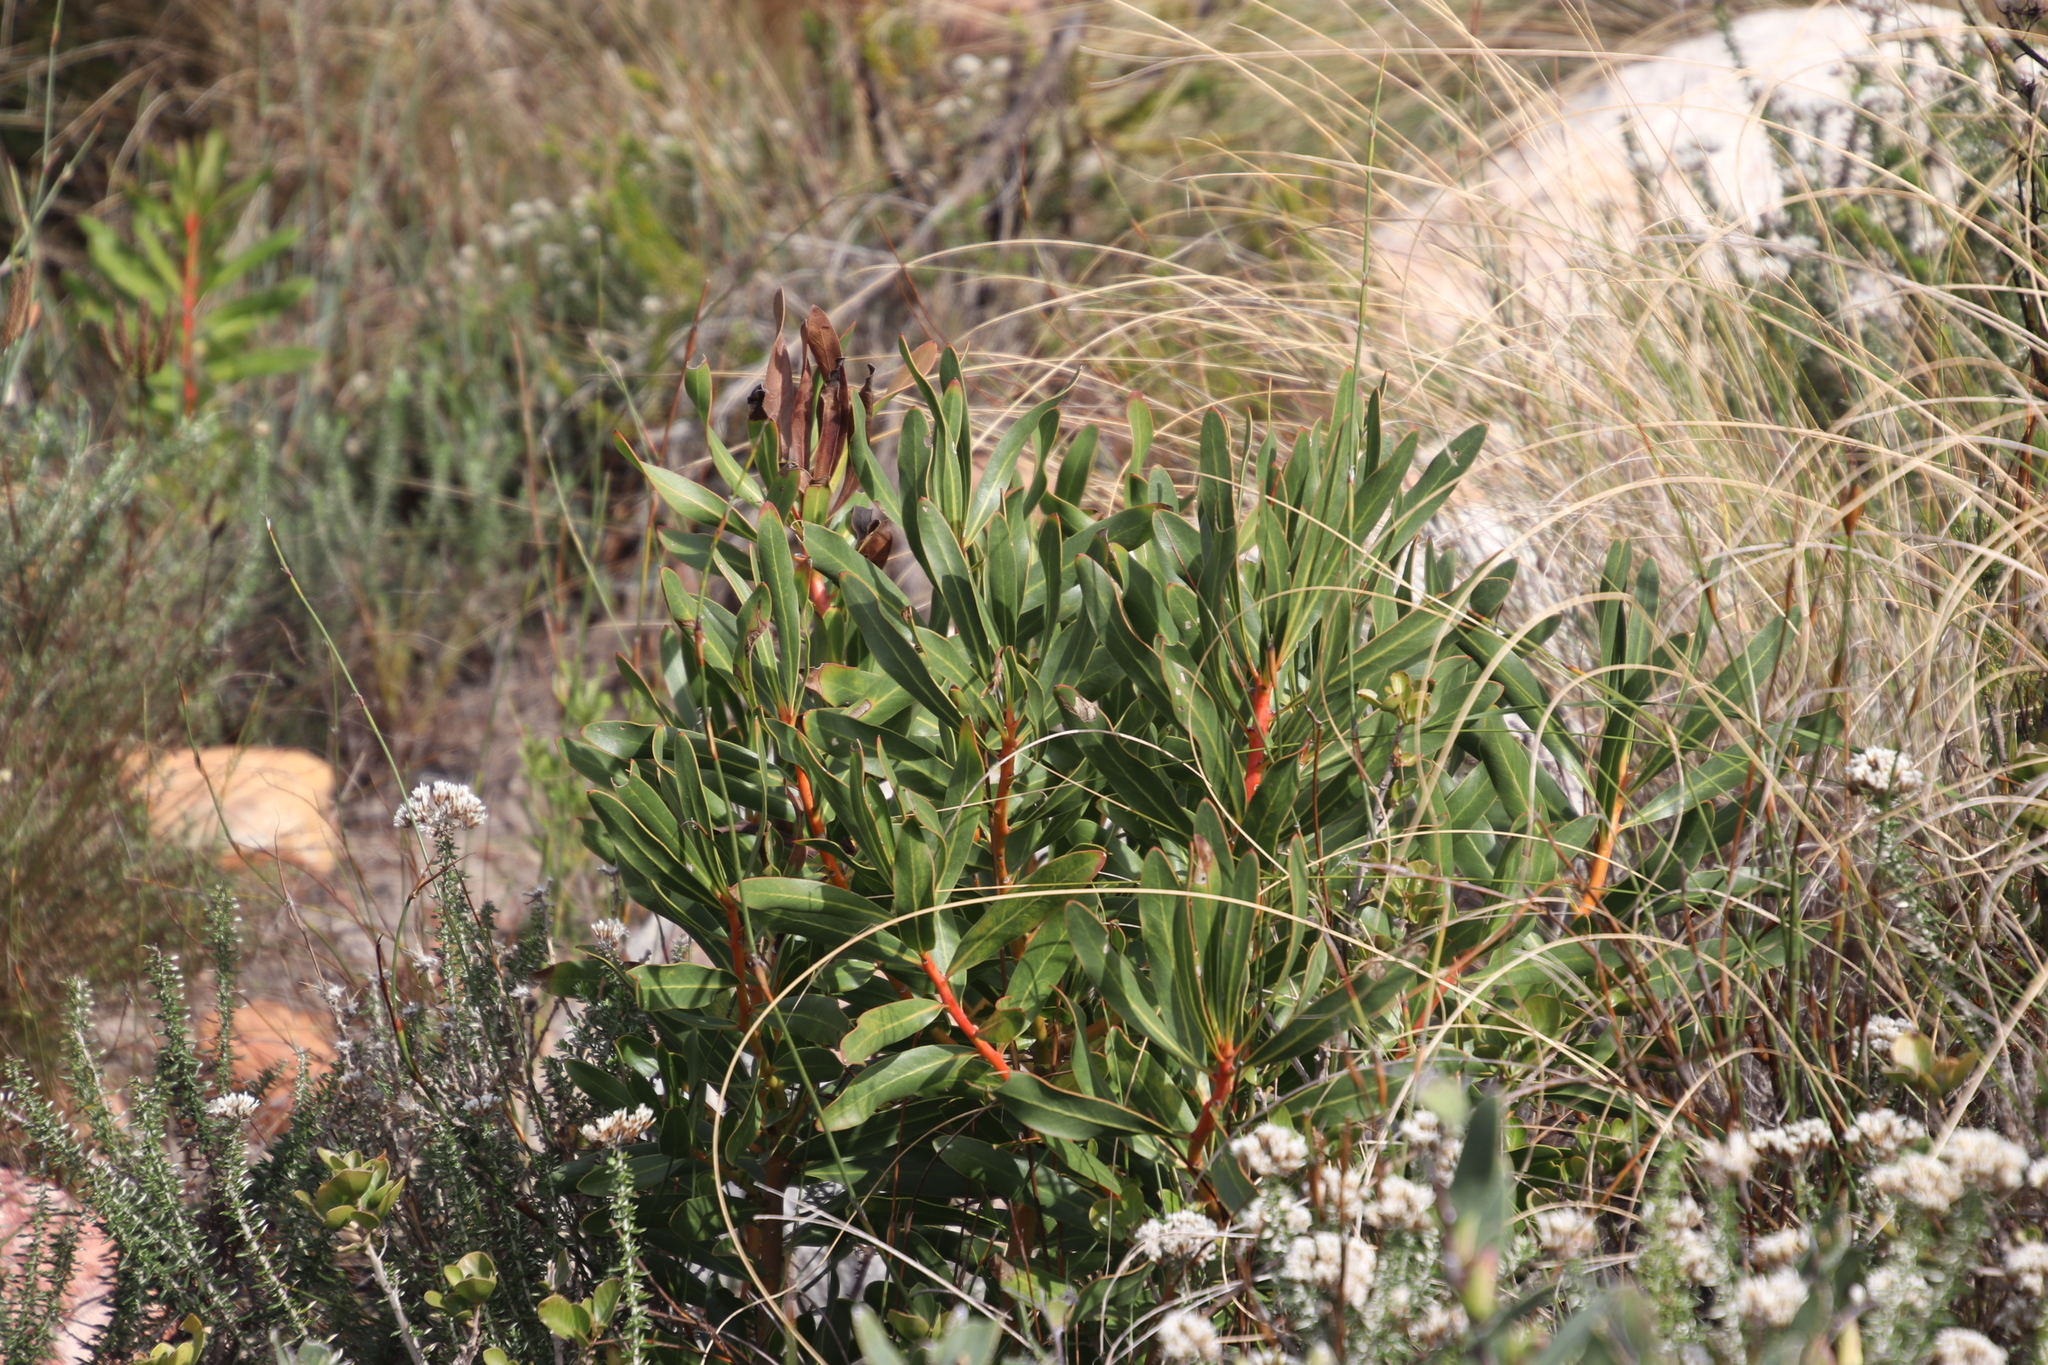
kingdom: Plantae
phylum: Tracheophyta
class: Magnoliopsida
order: Proteales
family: Proteaceae
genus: Protea
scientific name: Protea lepidocarpodendron
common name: Black-bearded protea
